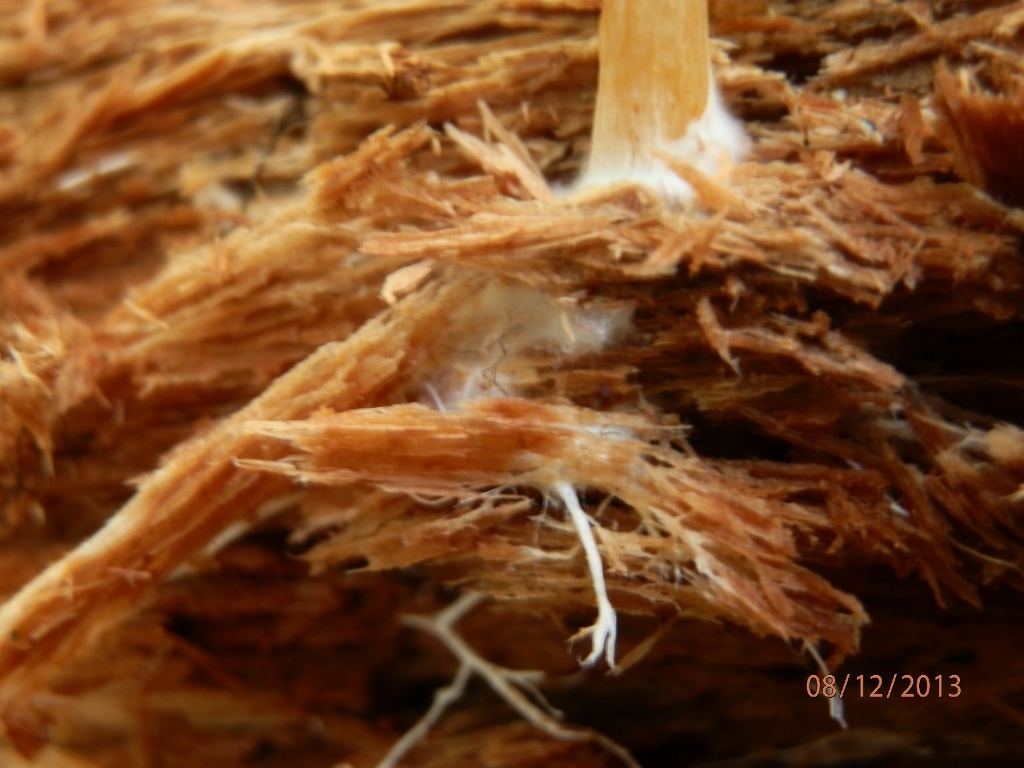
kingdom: Fungi
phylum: Basidiomycota
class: Agaricomycetes
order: Agaricales
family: Tricholomataceae
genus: Tricholomopsis
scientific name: Tricholomopsis sulfureoides
